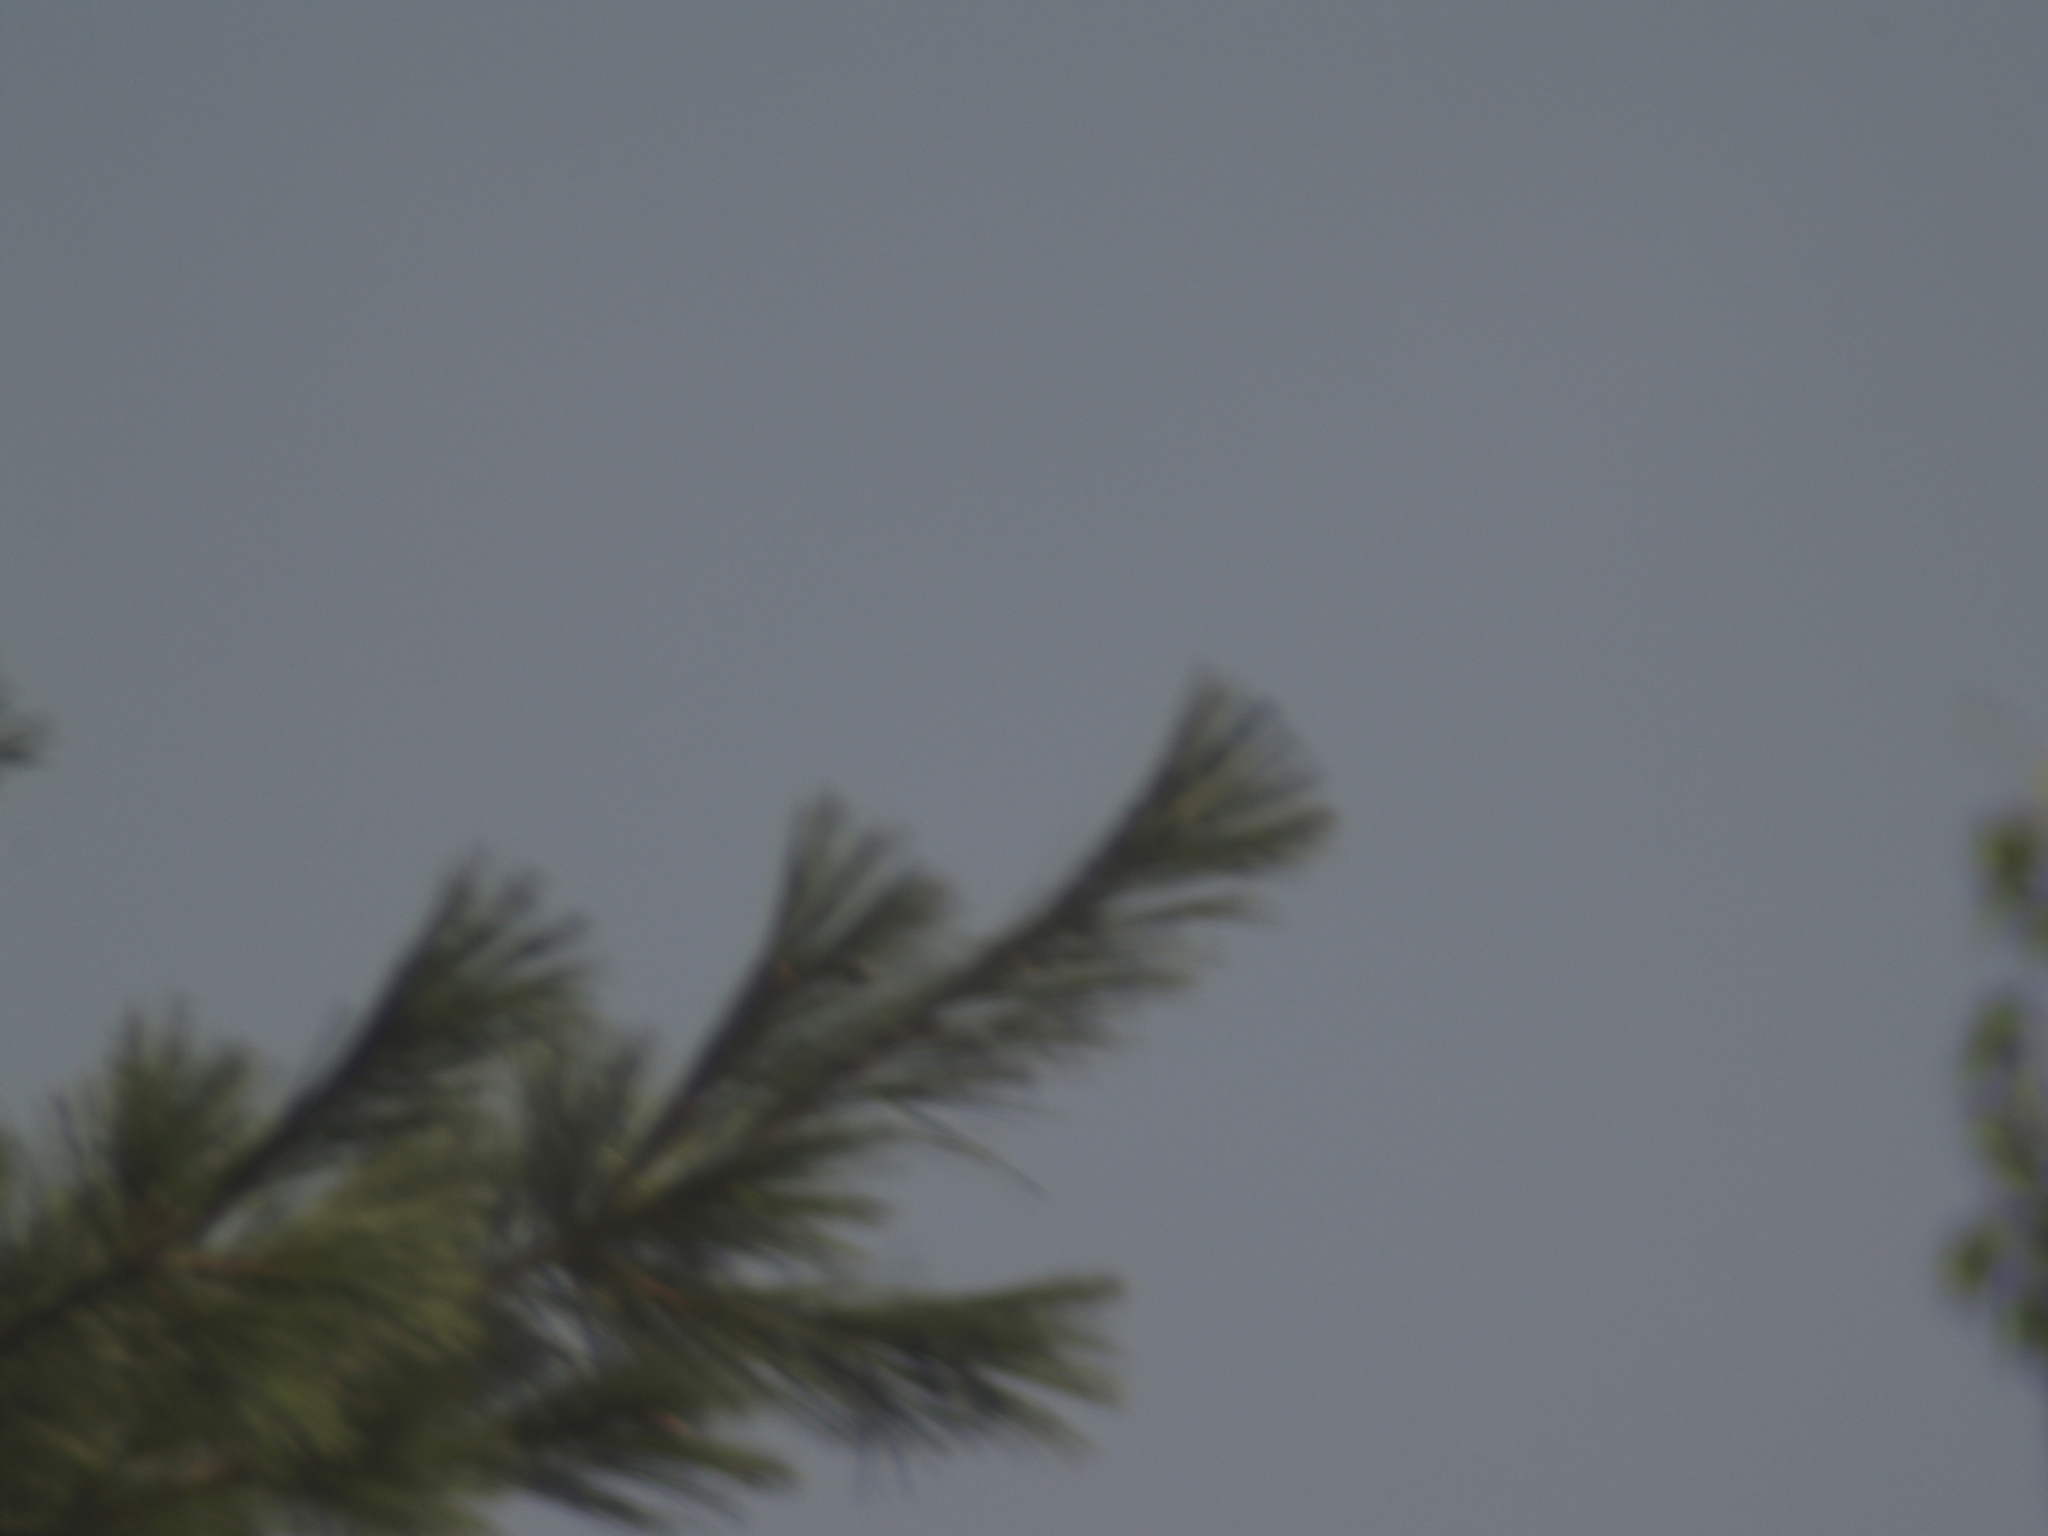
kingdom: Plantae
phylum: Tracheophyta
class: Pinopsida
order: Pinales
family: Pinaceae
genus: Pinus
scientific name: Pinus strobus
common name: Weymouth pine
